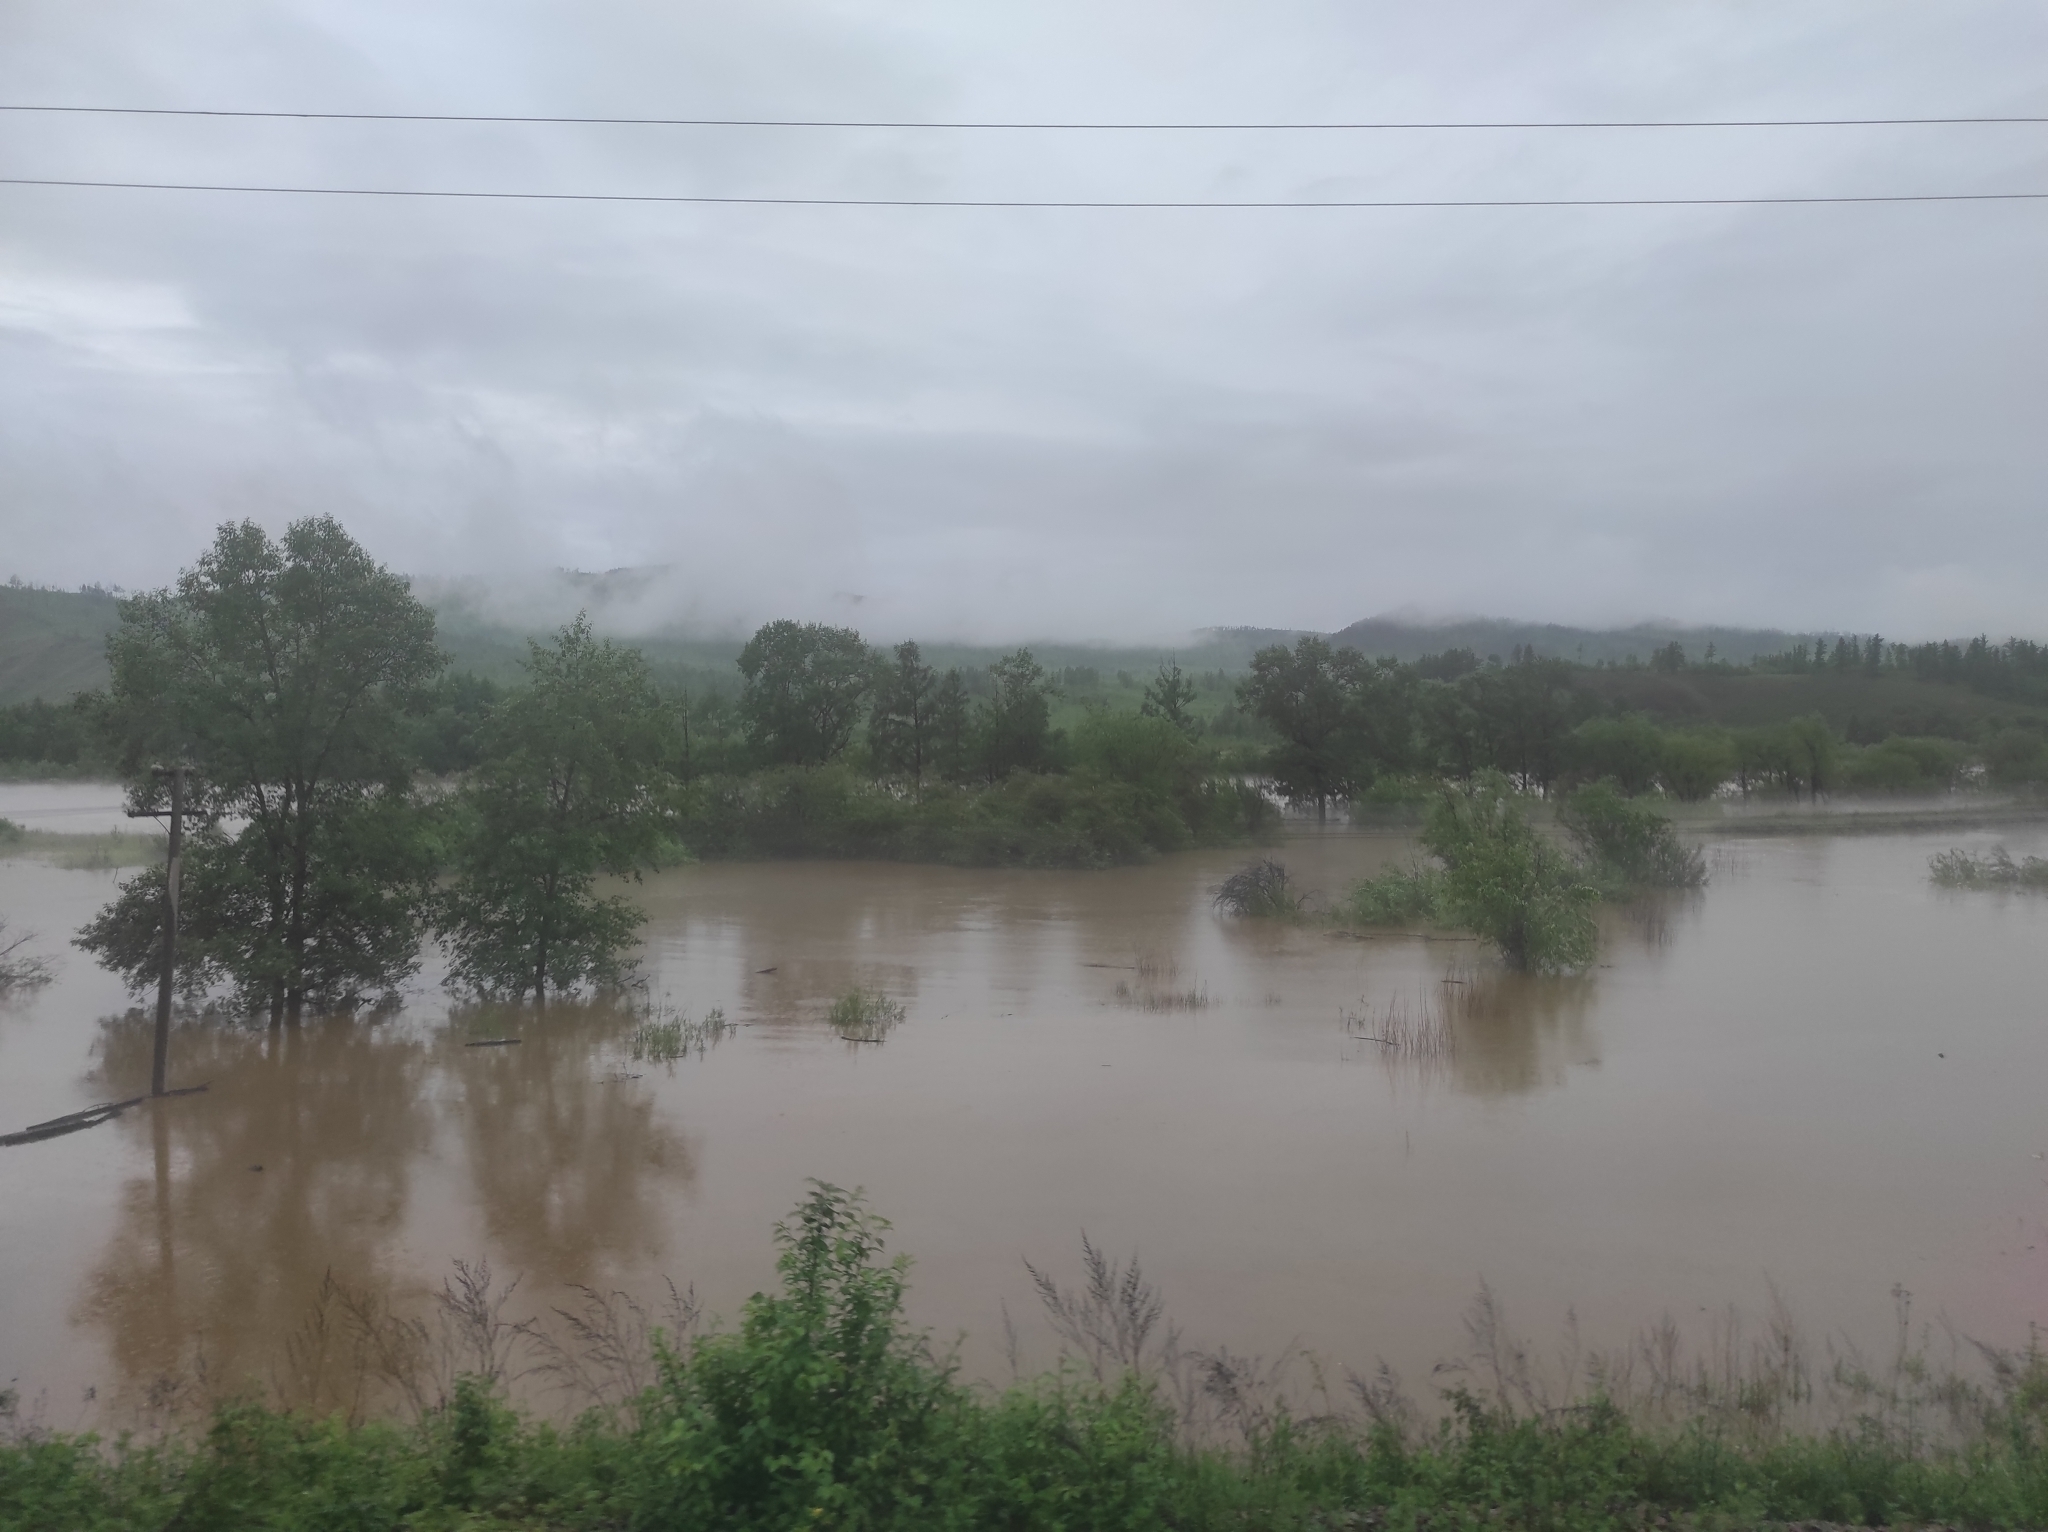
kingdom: Plantae
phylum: Tracheophyta
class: Pinopsida
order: Pinales
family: Pinaceae
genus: Larix
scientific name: Larix gmelinii
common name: Dahurian larch
